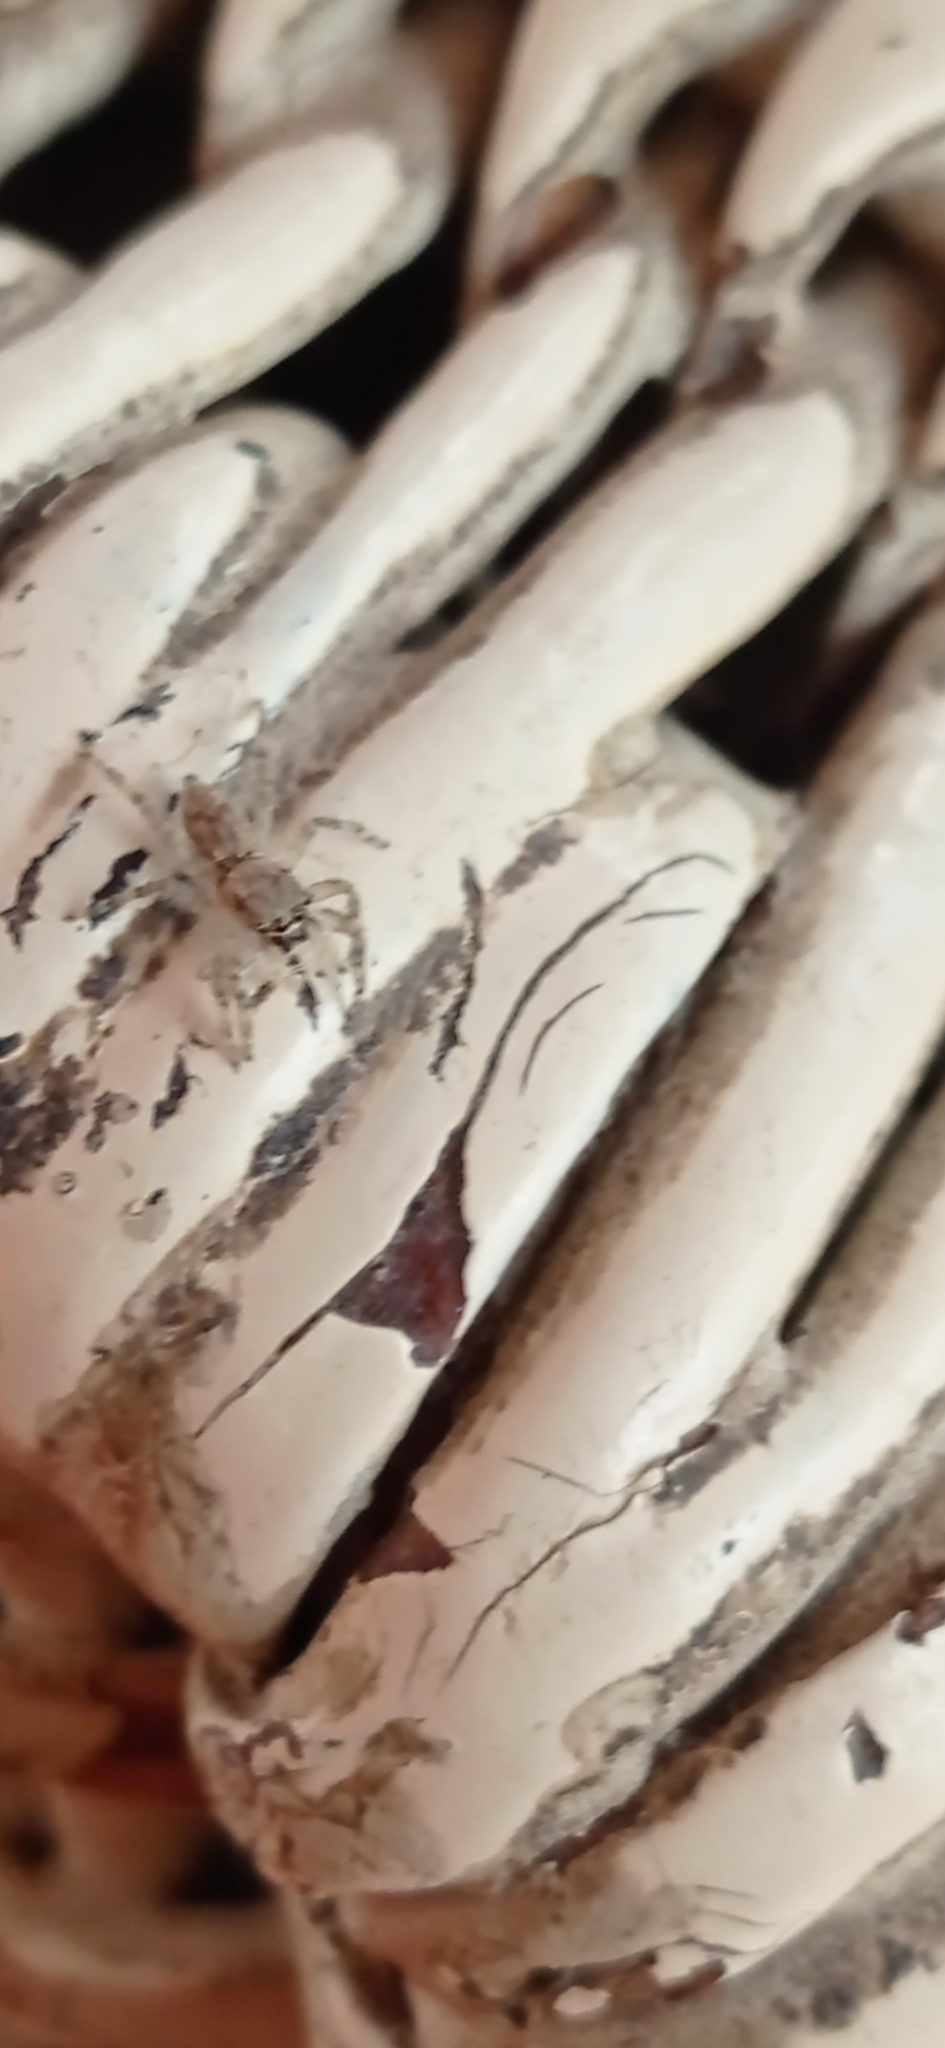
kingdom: Animalia
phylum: Arthropoda
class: Arachnida
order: Araneae
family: Salticidae
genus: Menemerus
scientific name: Menemerus bivittatus
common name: Gray wall jumper
